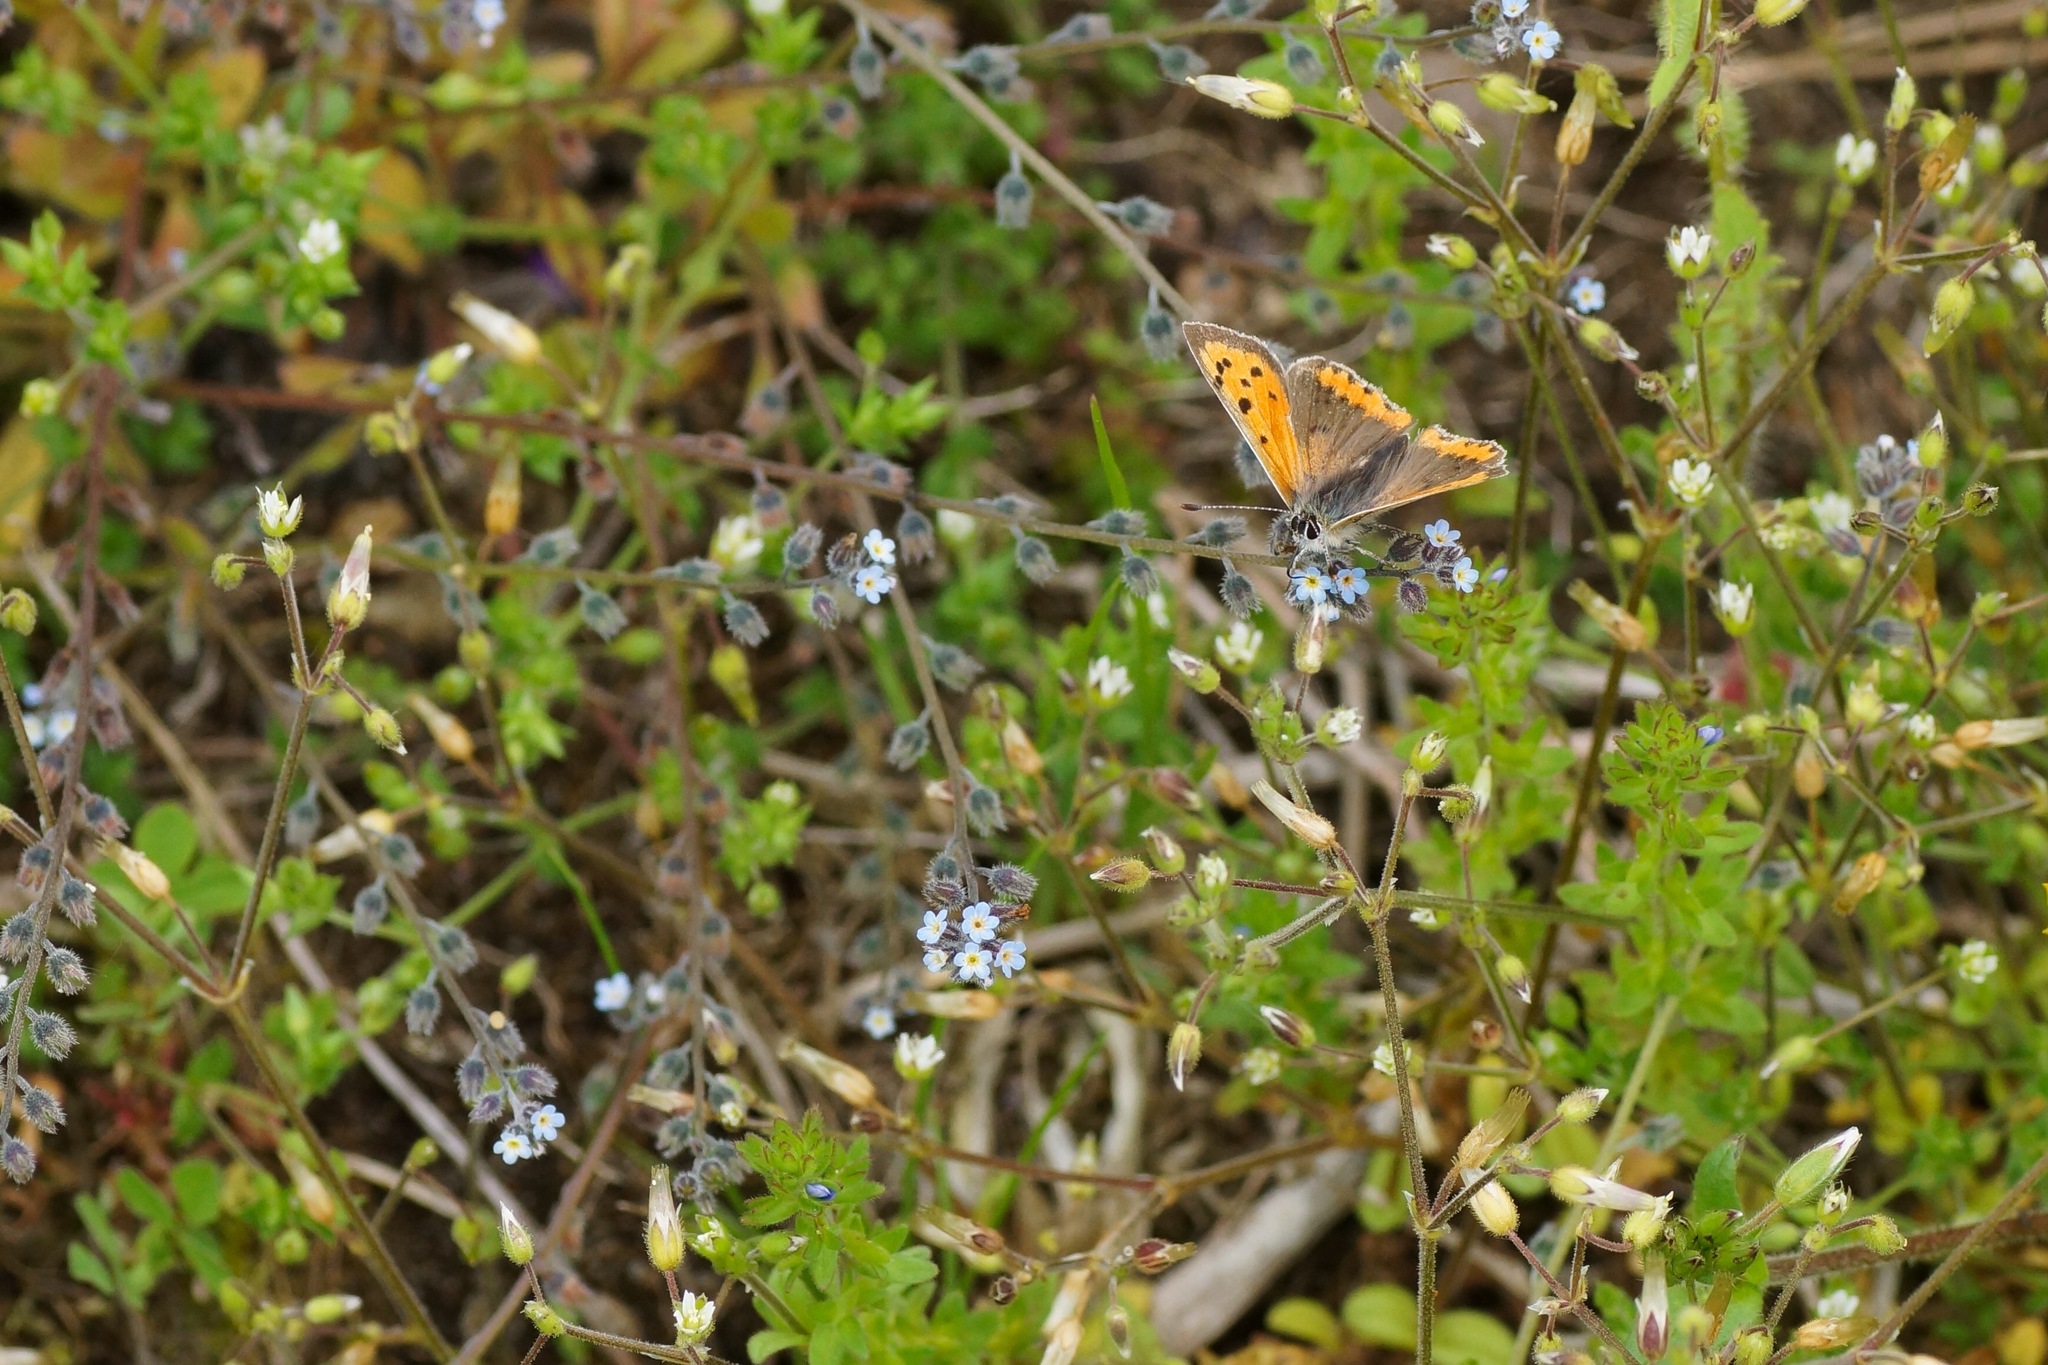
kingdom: Animalia
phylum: Arthropoda
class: Insecta
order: Lepidoptera
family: Lycaenidae
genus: Lycaena
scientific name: Lycaena phlaeas
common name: Small copper
